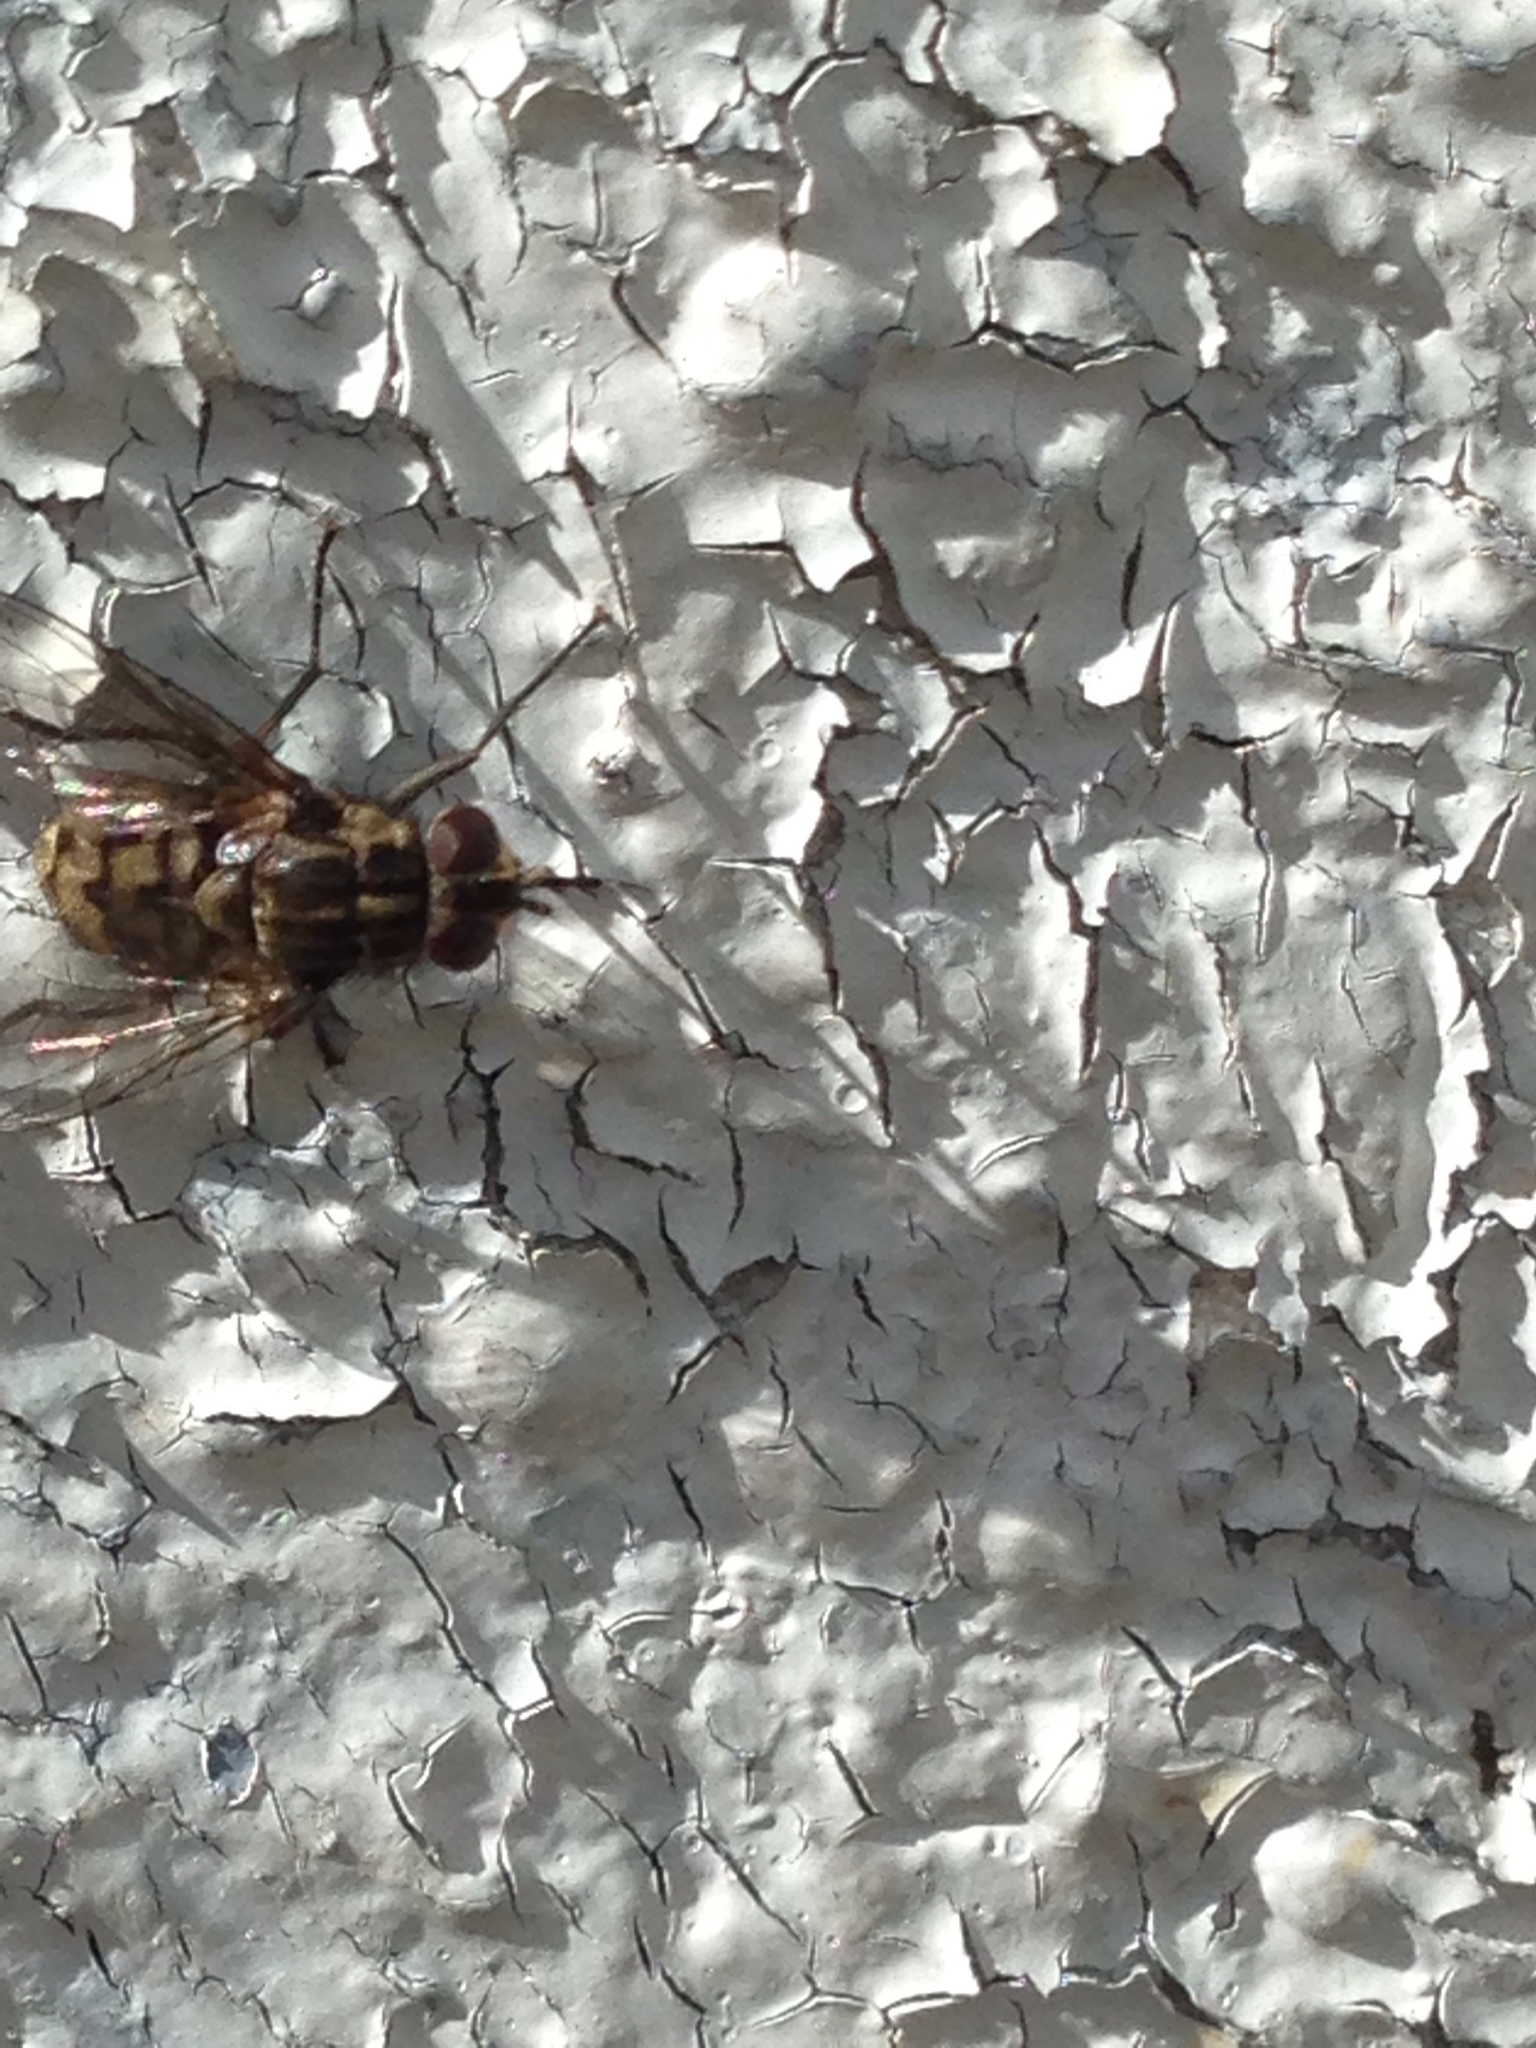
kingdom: Animalia
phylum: Arthropoda
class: Insecta
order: Diptera
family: Muscidae
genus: Stomoxys
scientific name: Stomoxys calcitrans
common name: Stable fly
